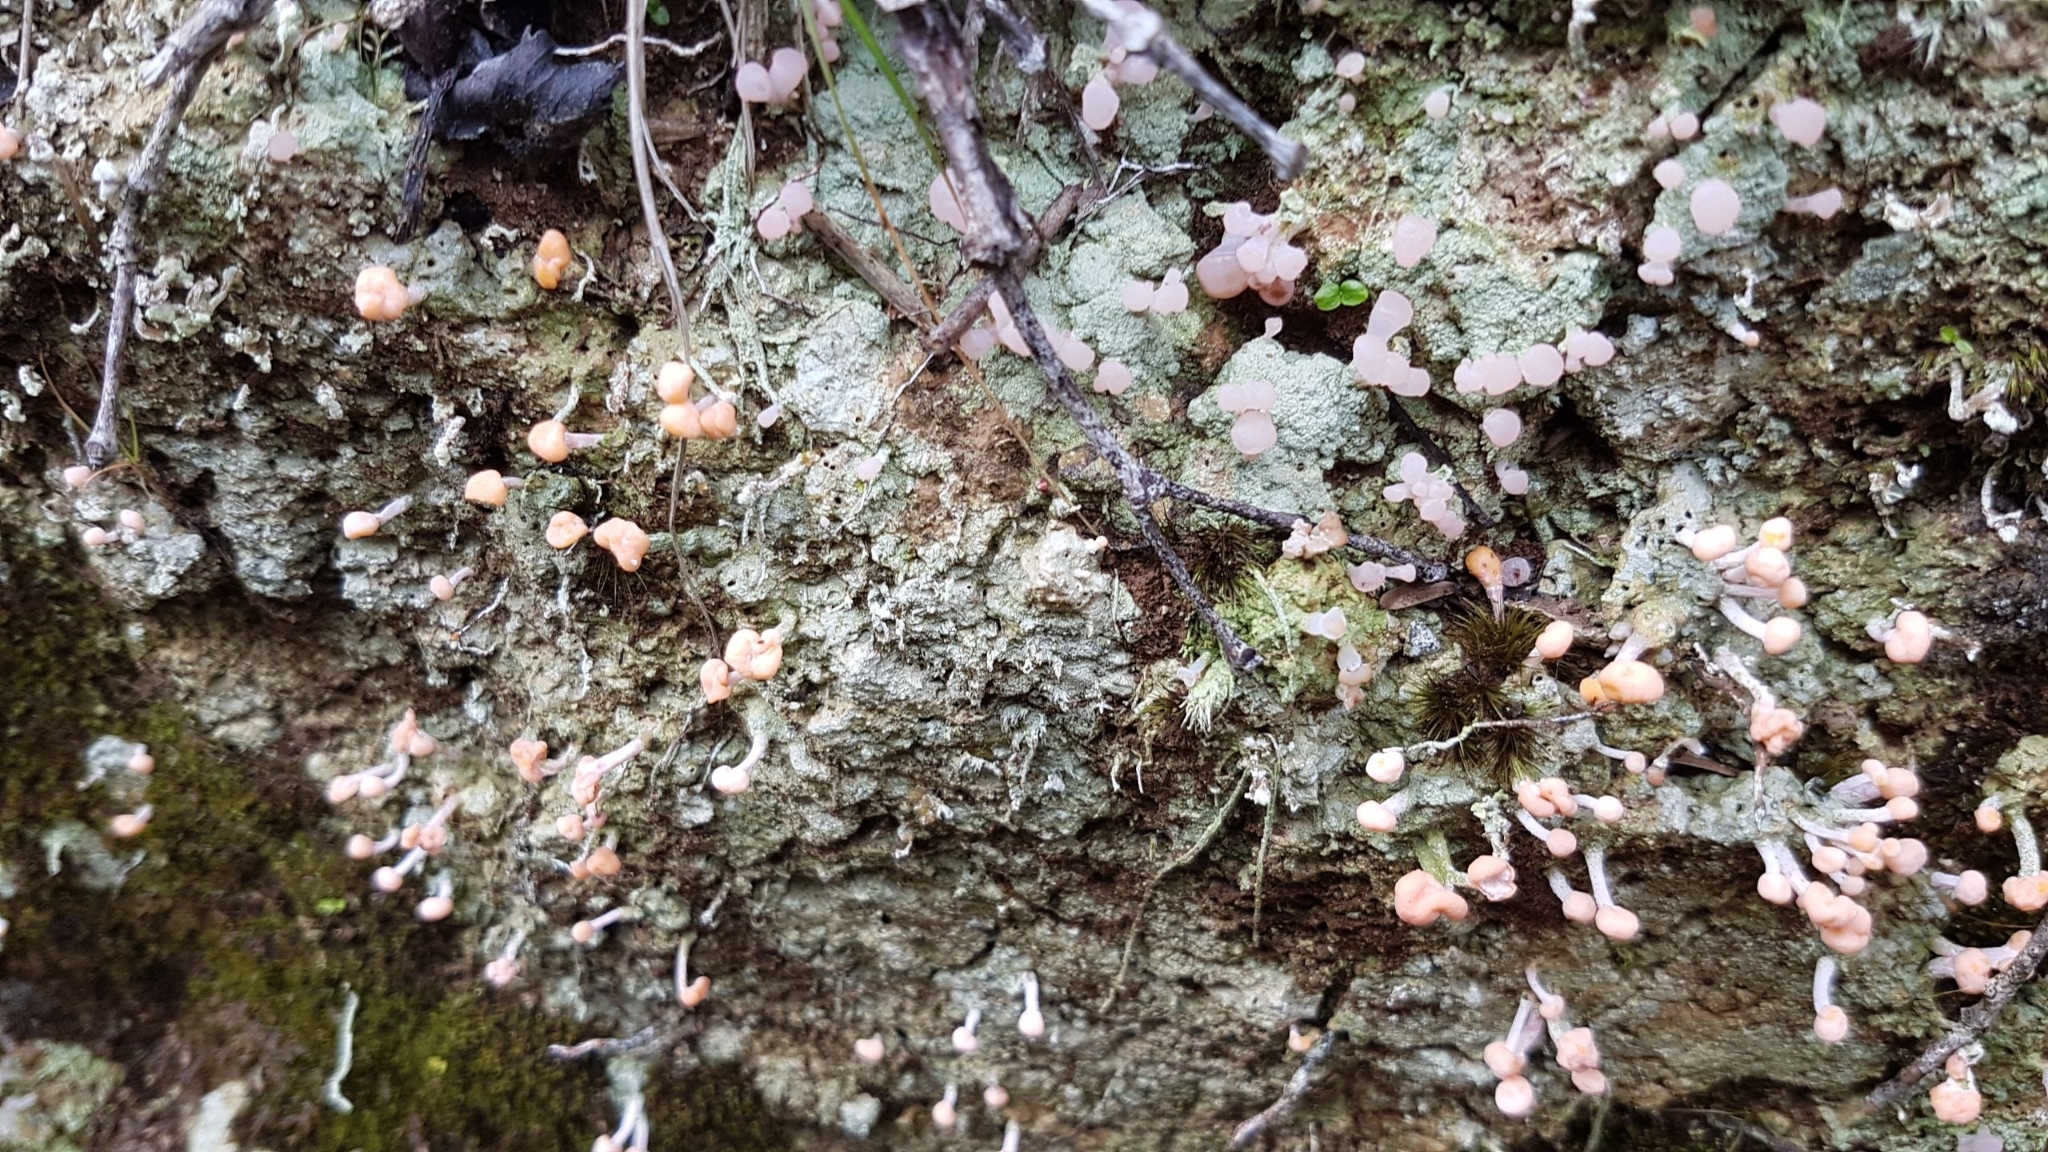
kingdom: Fungi
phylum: Ascomycota
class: Lecanoromycetes
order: Pertusariales
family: Icmadophilaceae
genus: Dibaeis
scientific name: Dibaeis arcuata
